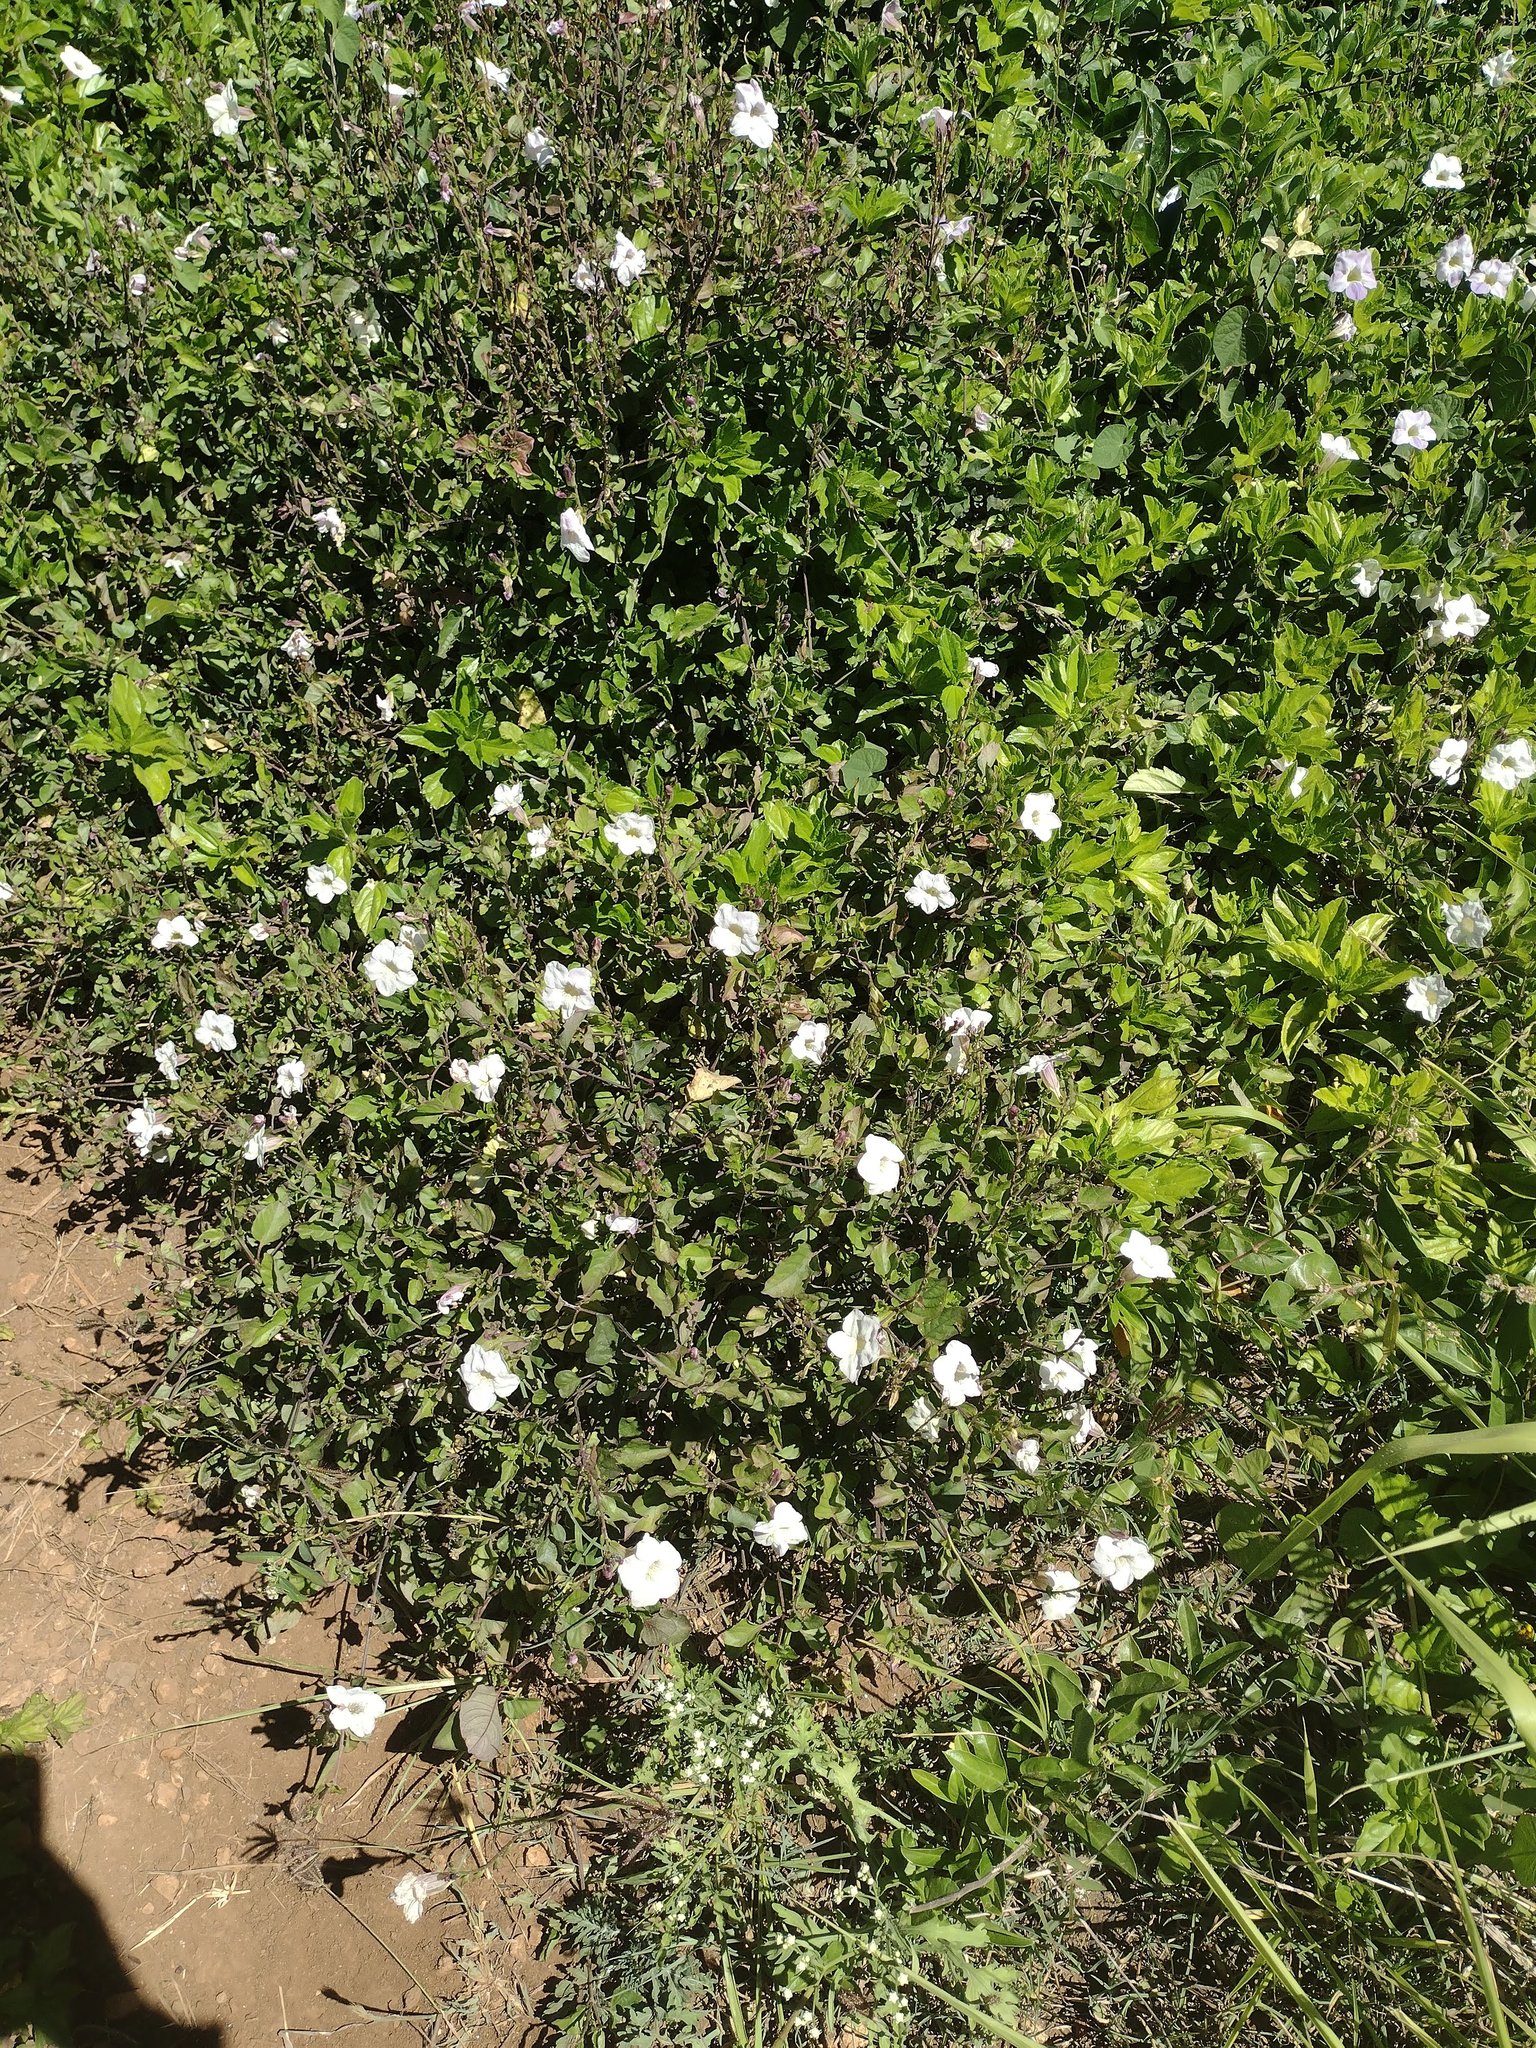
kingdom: Plantae
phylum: Tracheophyta
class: Magnoliopsida
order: Lamiales
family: Acanthaceae
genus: Asystasia
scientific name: Asystasia gangetica
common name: Chinese violet
